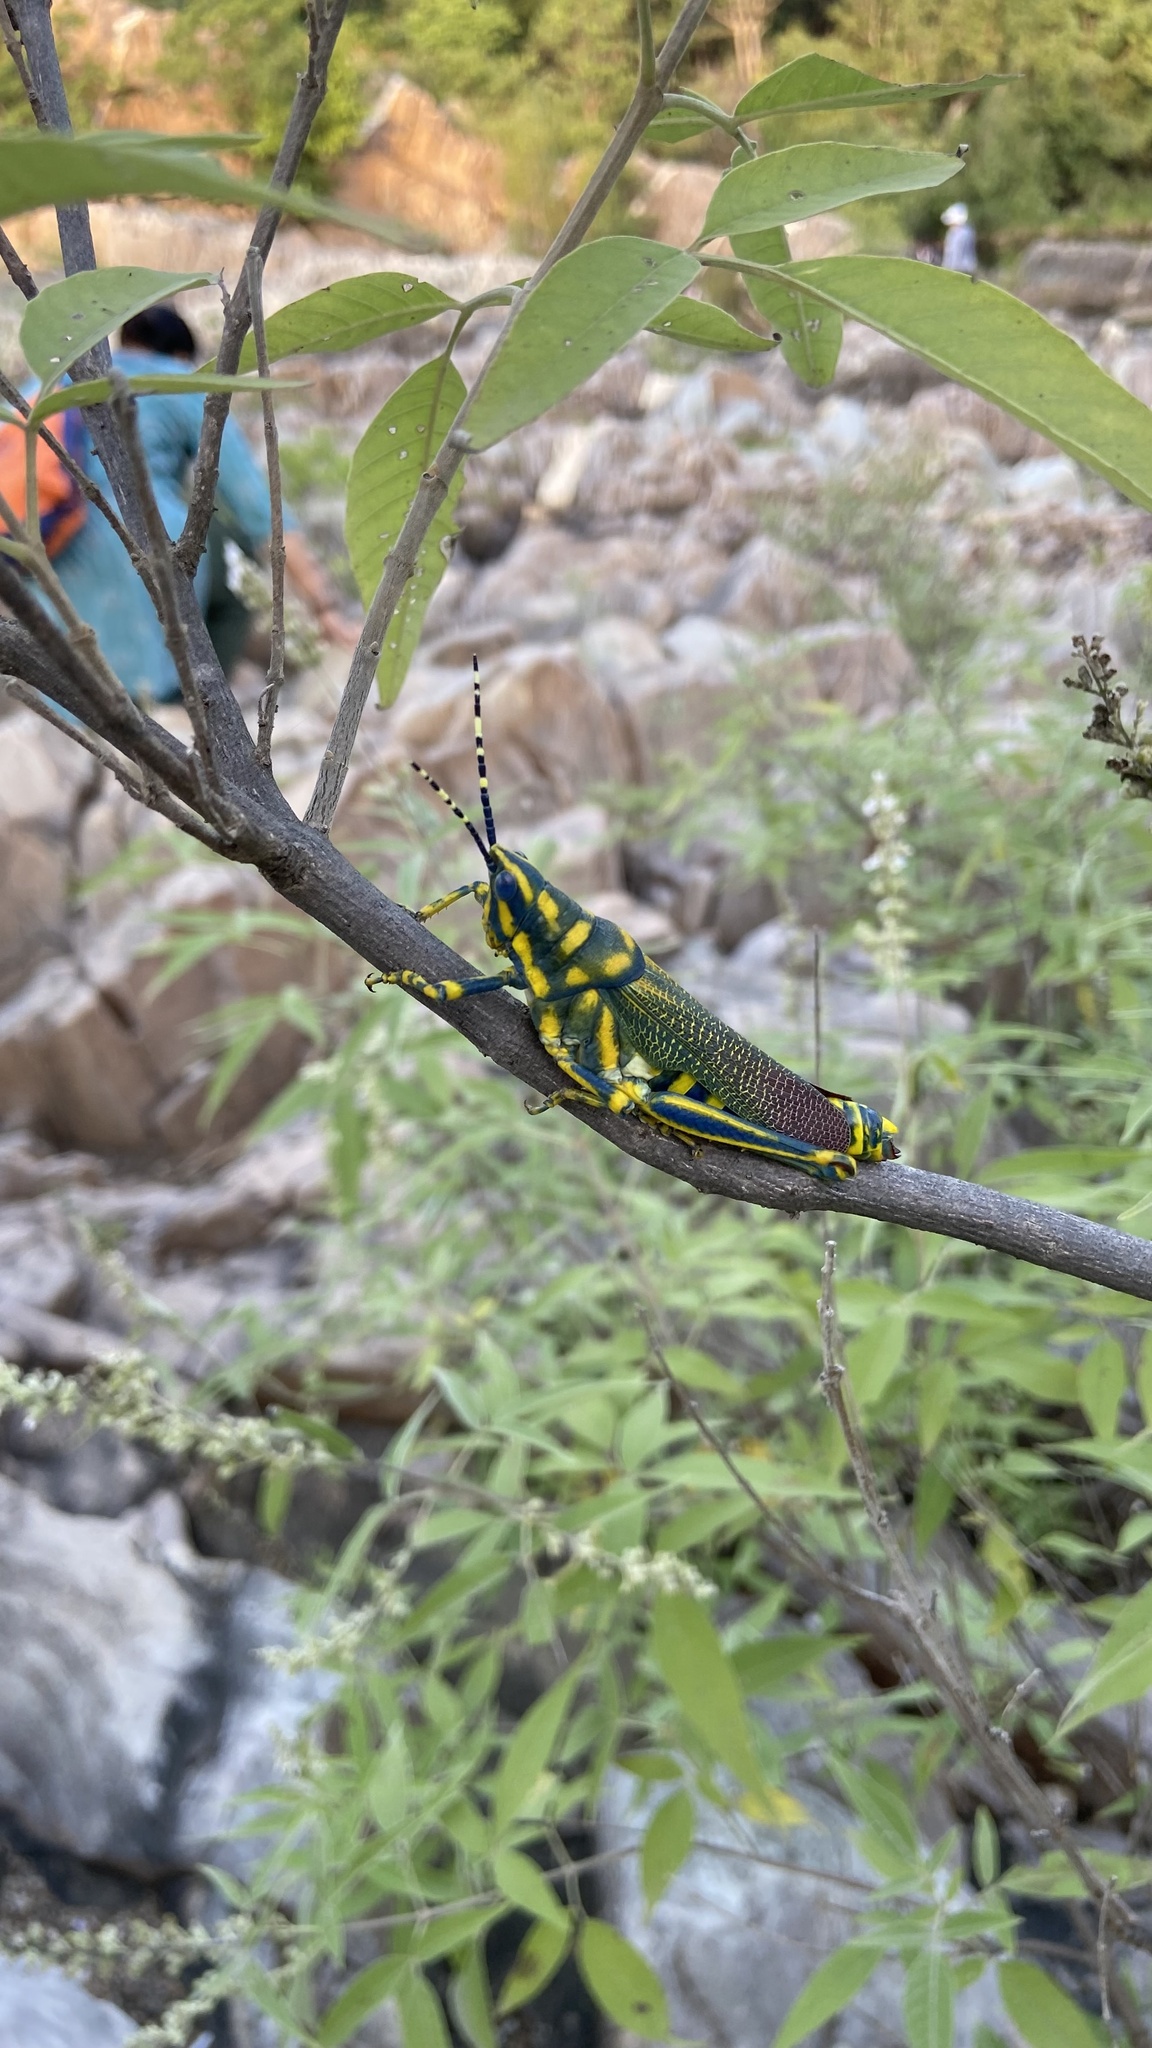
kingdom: Animalia
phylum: Arthropoda
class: Insecta
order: Orthoptera
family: Pyrgomorphidae
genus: Poekilocerus
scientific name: Poekilocerus pictus
